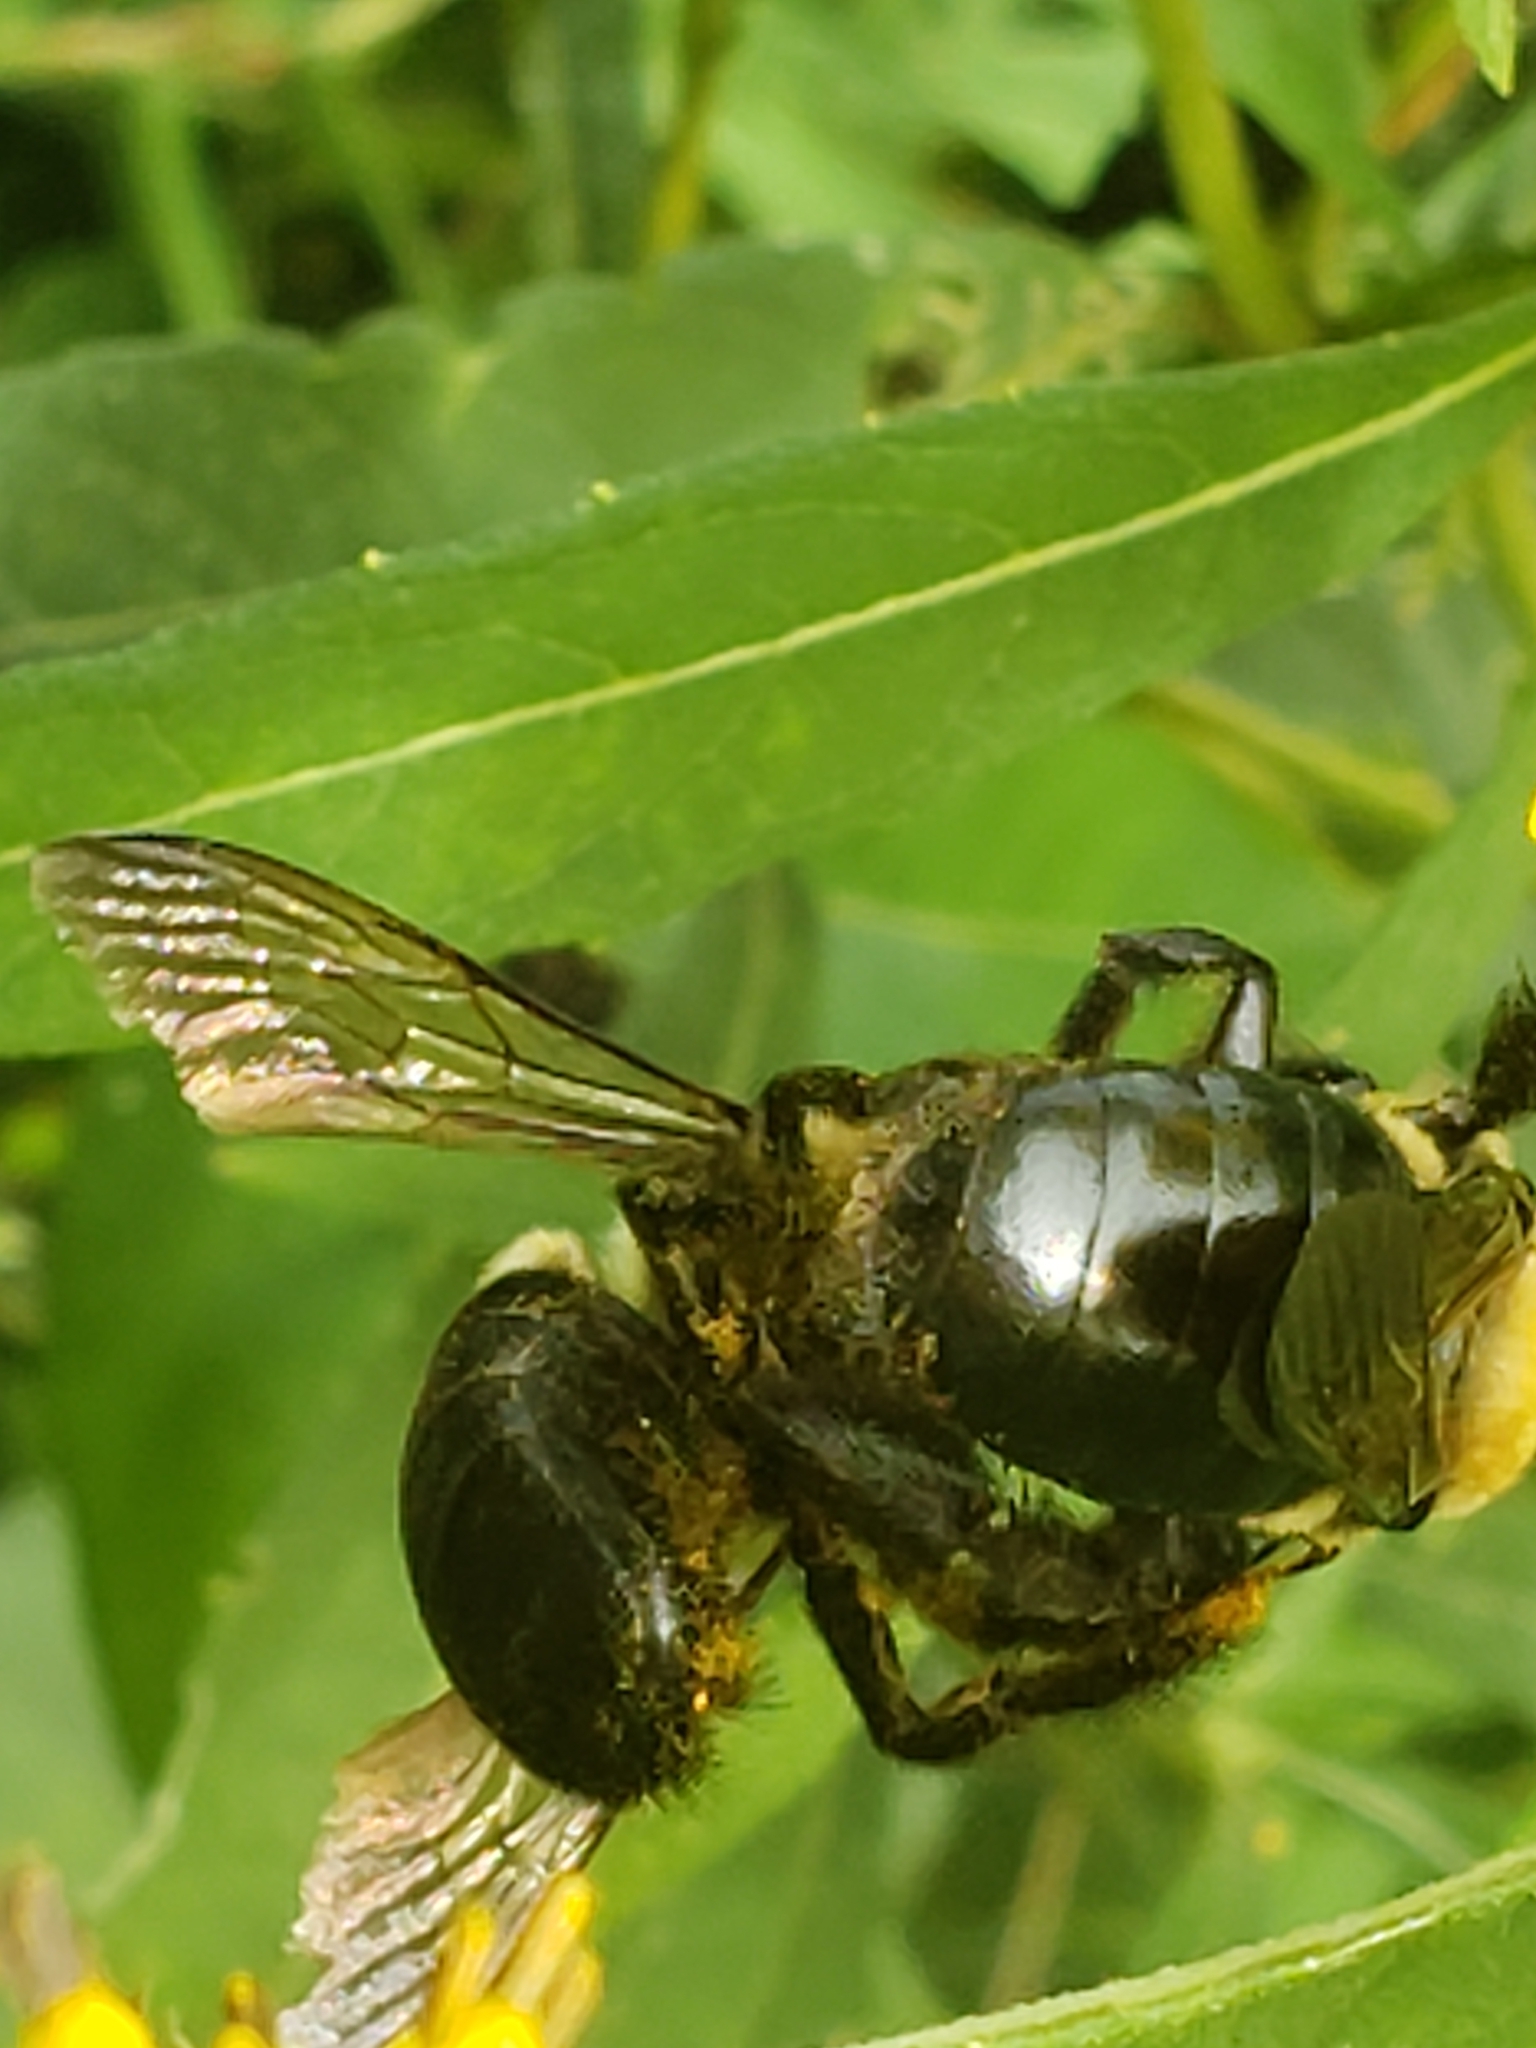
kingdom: Animalia
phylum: Arthropoda
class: Insecta
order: Hymenoptera
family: Apidae
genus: Xylocopa
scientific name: Xylocopa virginica
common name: Carpenter bee
